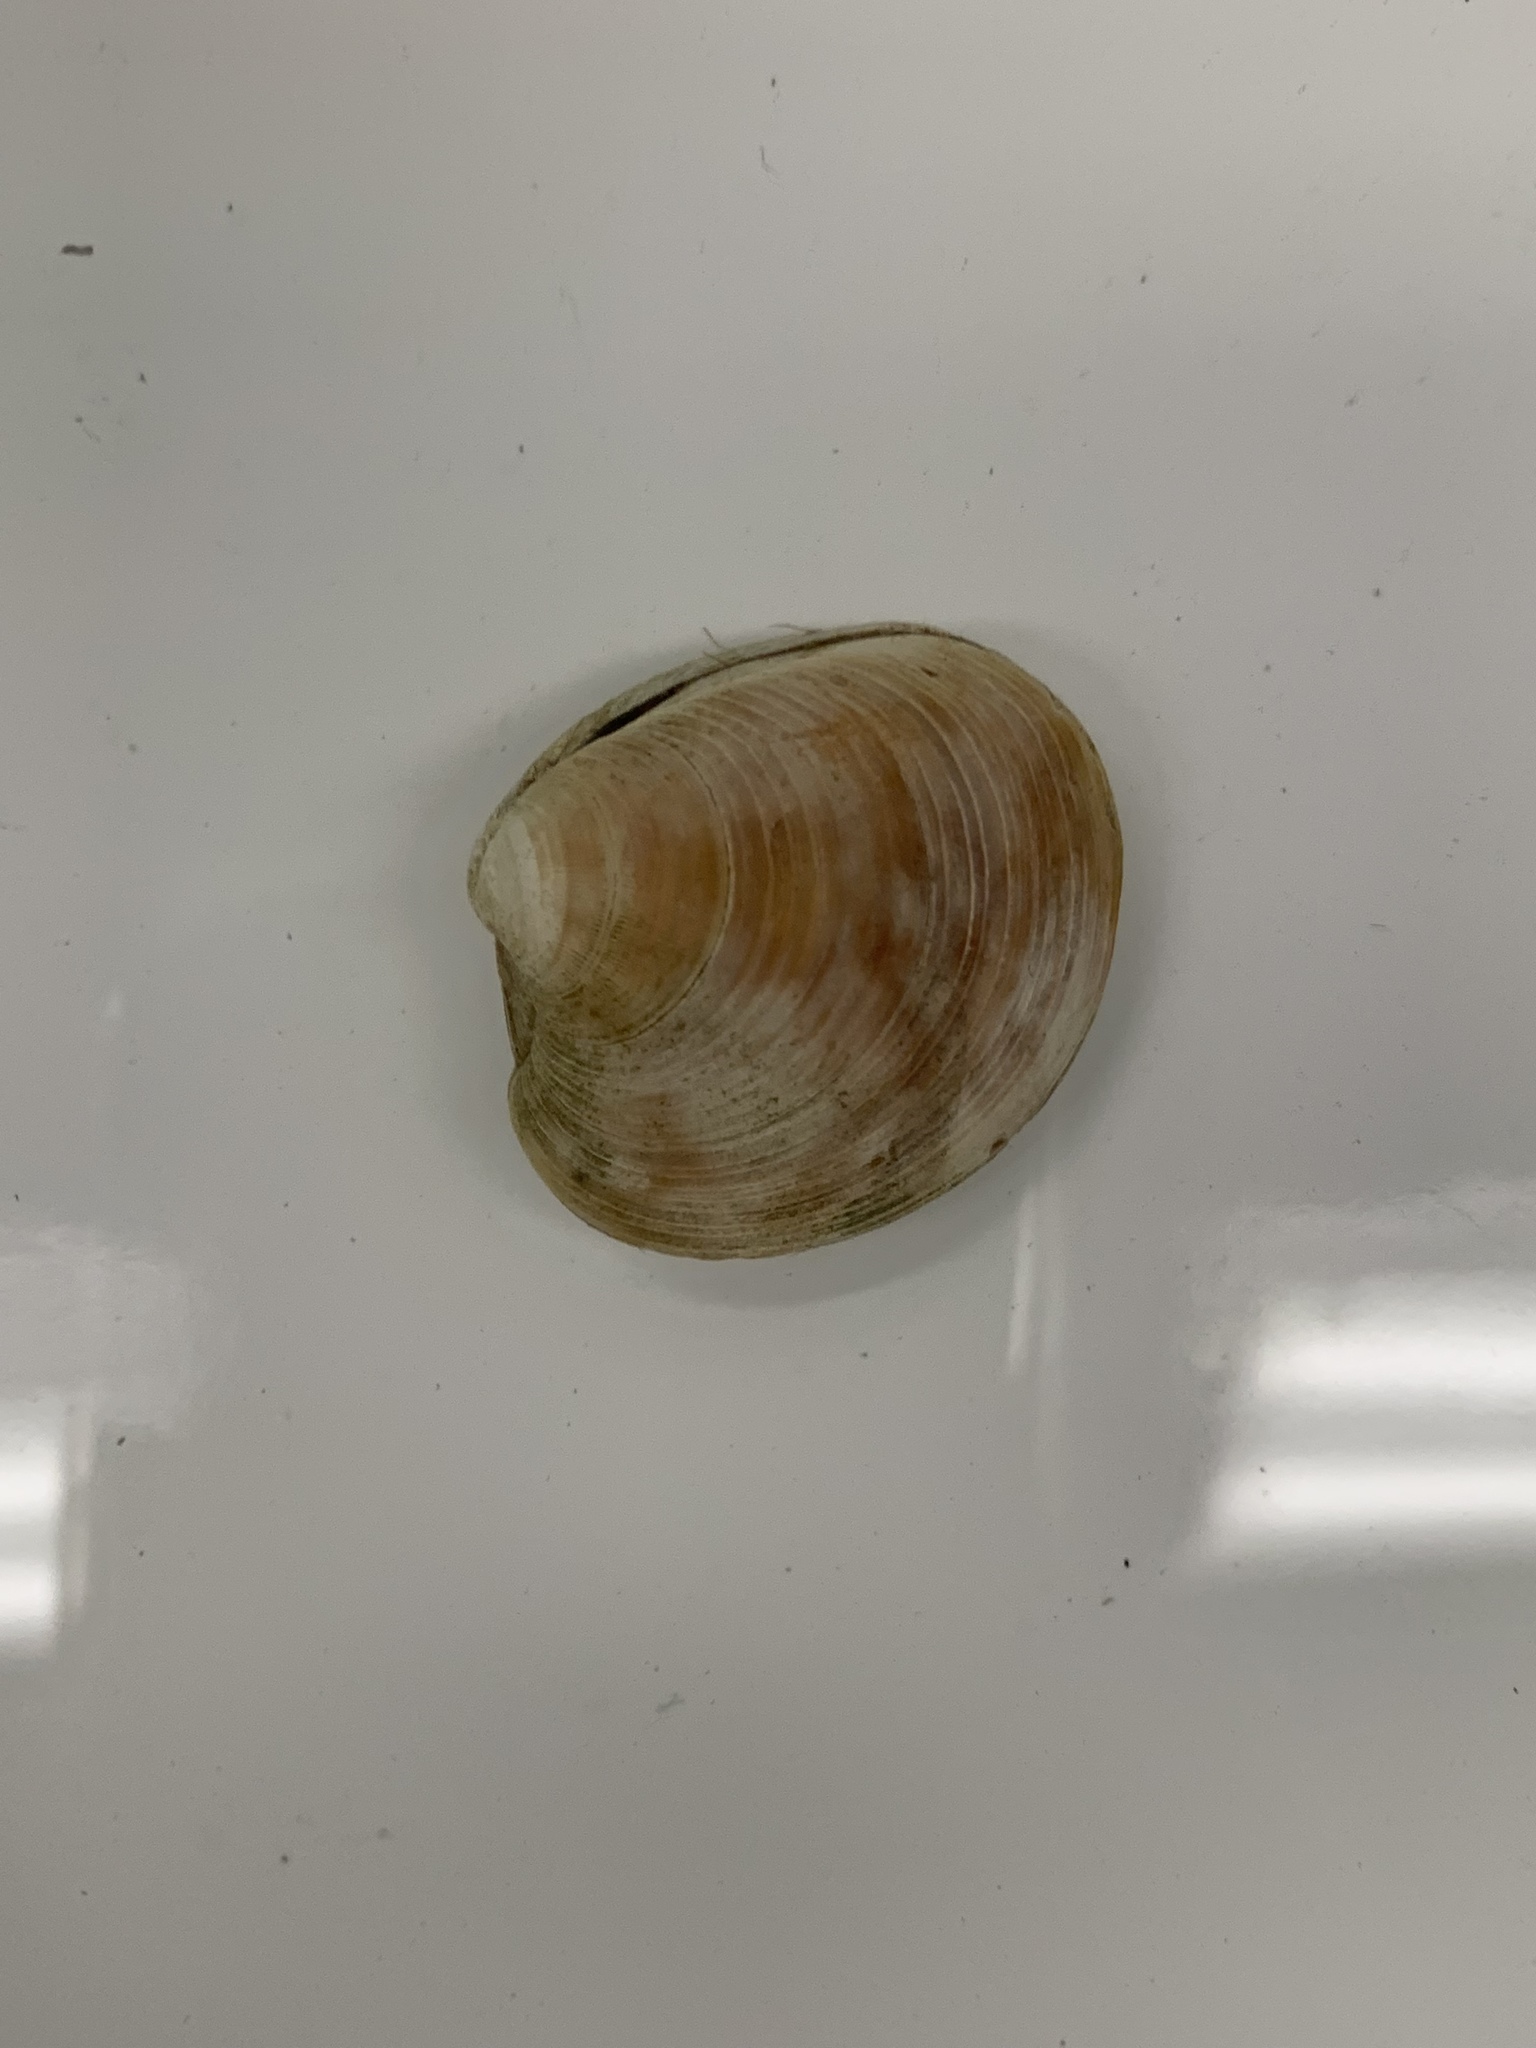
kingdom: Animalia
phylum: Mollusca
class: Bivalvia
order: Venerida
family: Veneridae
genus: Mercenaria
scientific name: Mercenaria mercenaria
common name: American hard-shelled clam
